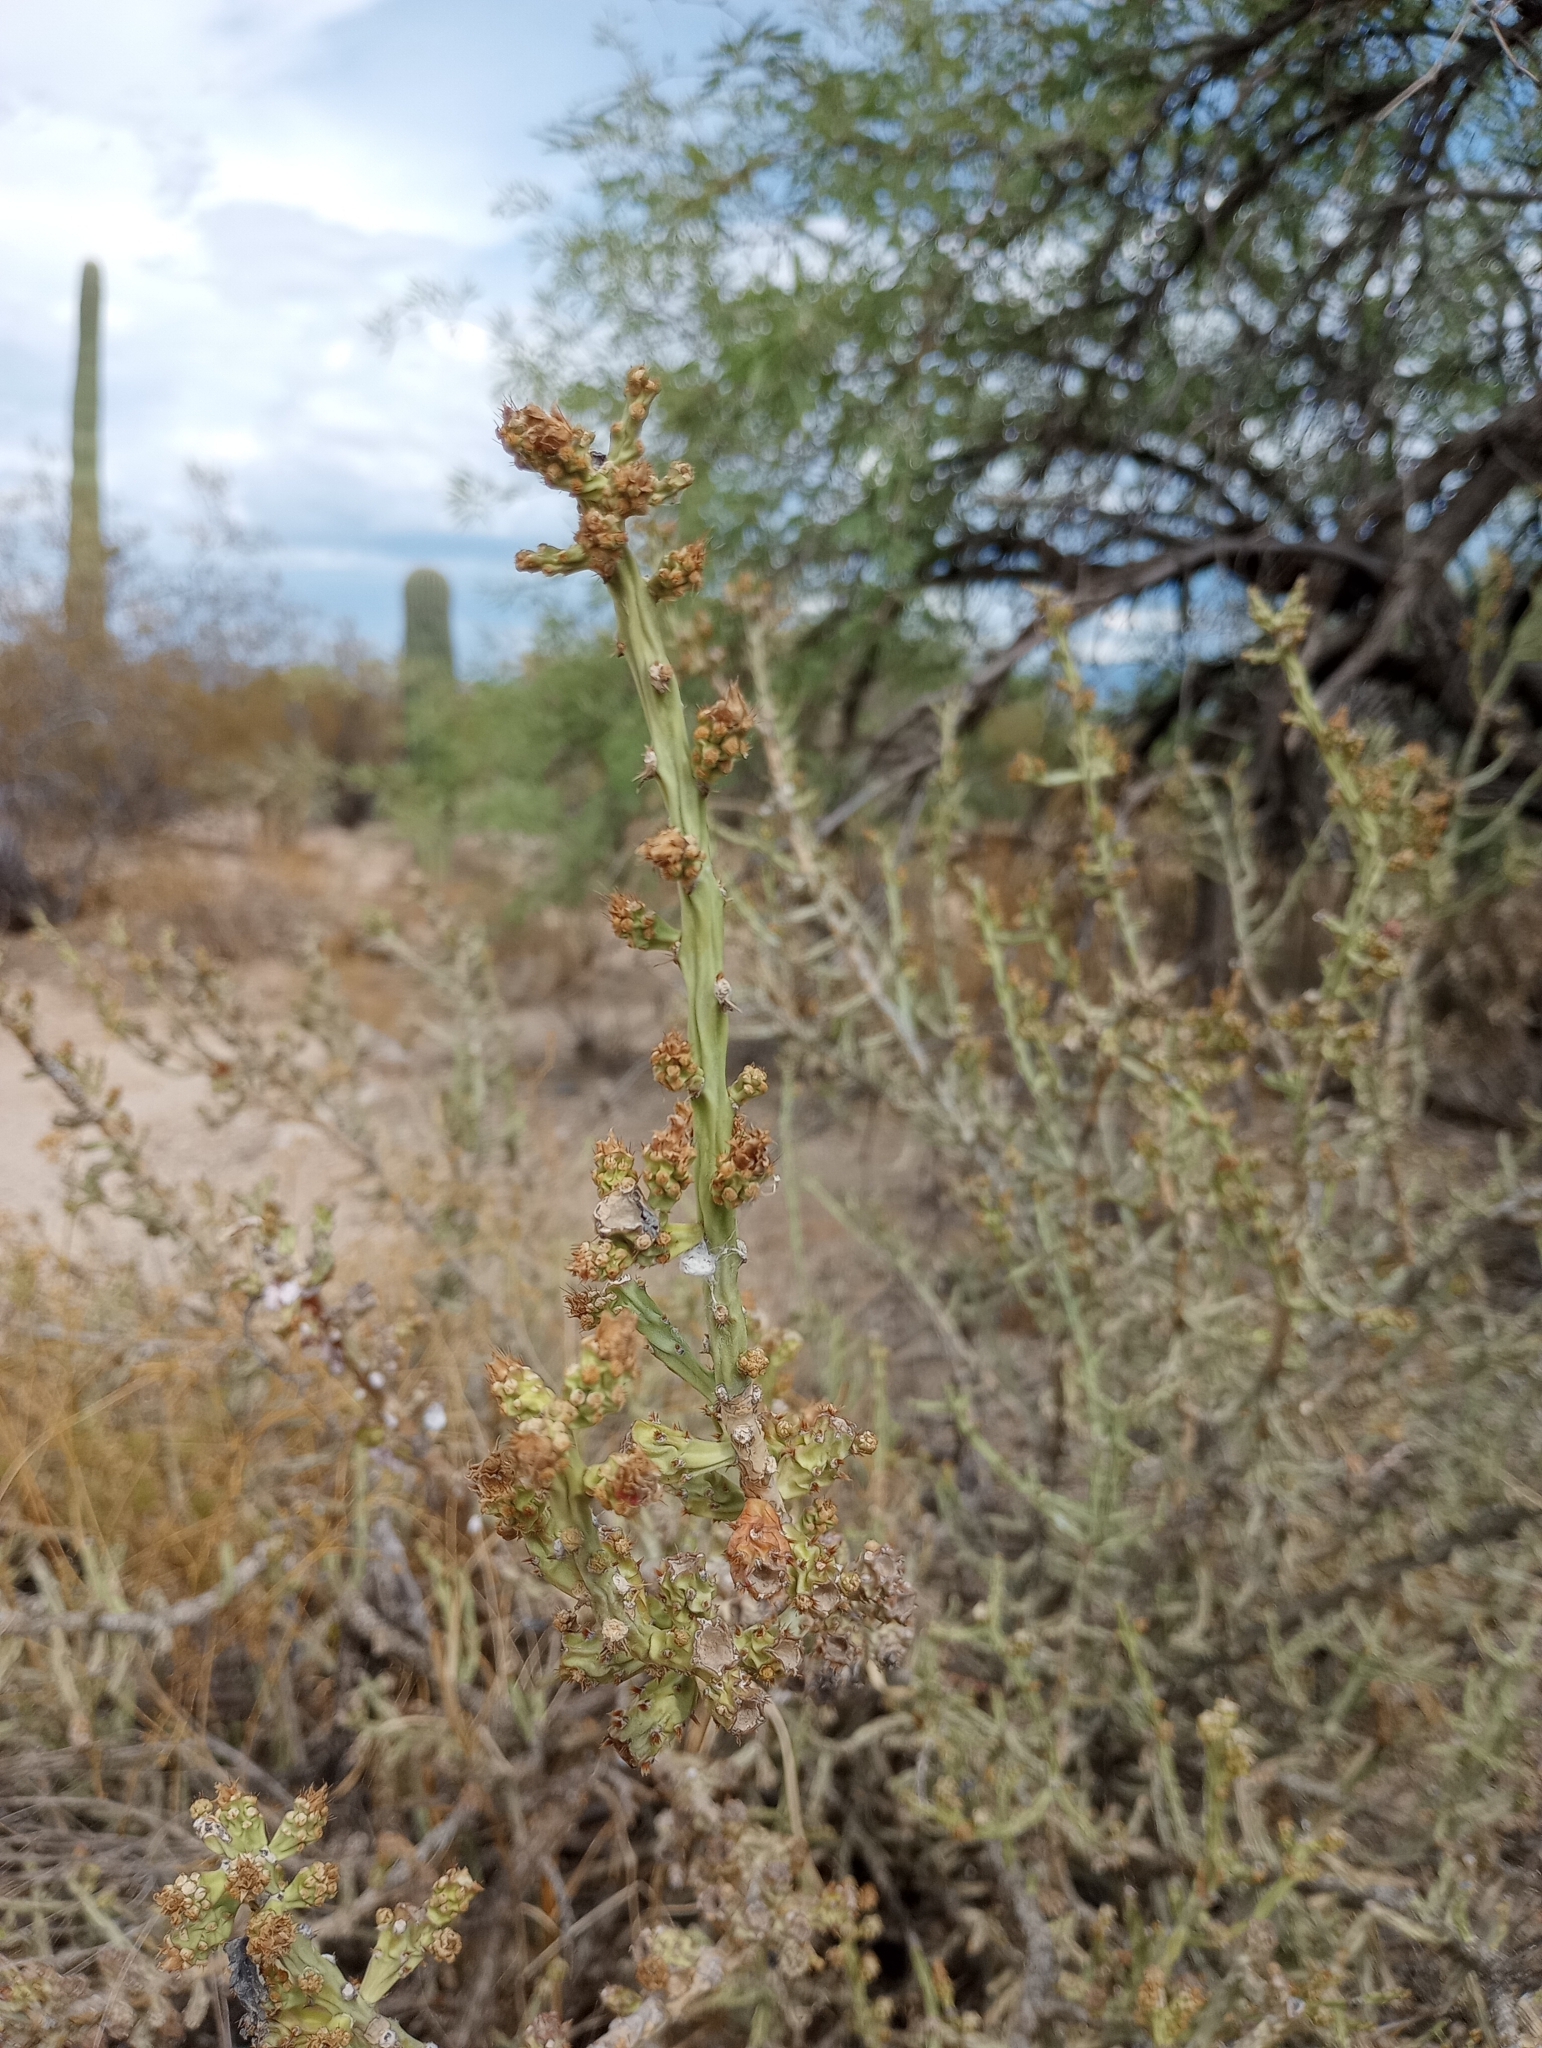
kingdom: Plantae
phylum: Tracheophyta
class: Magnoliopsida
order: Caryophyllales
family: Cactaceae
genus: Cylindropuntia
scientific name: Cylindropuntia leptocaulis
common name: Christmas cactus
